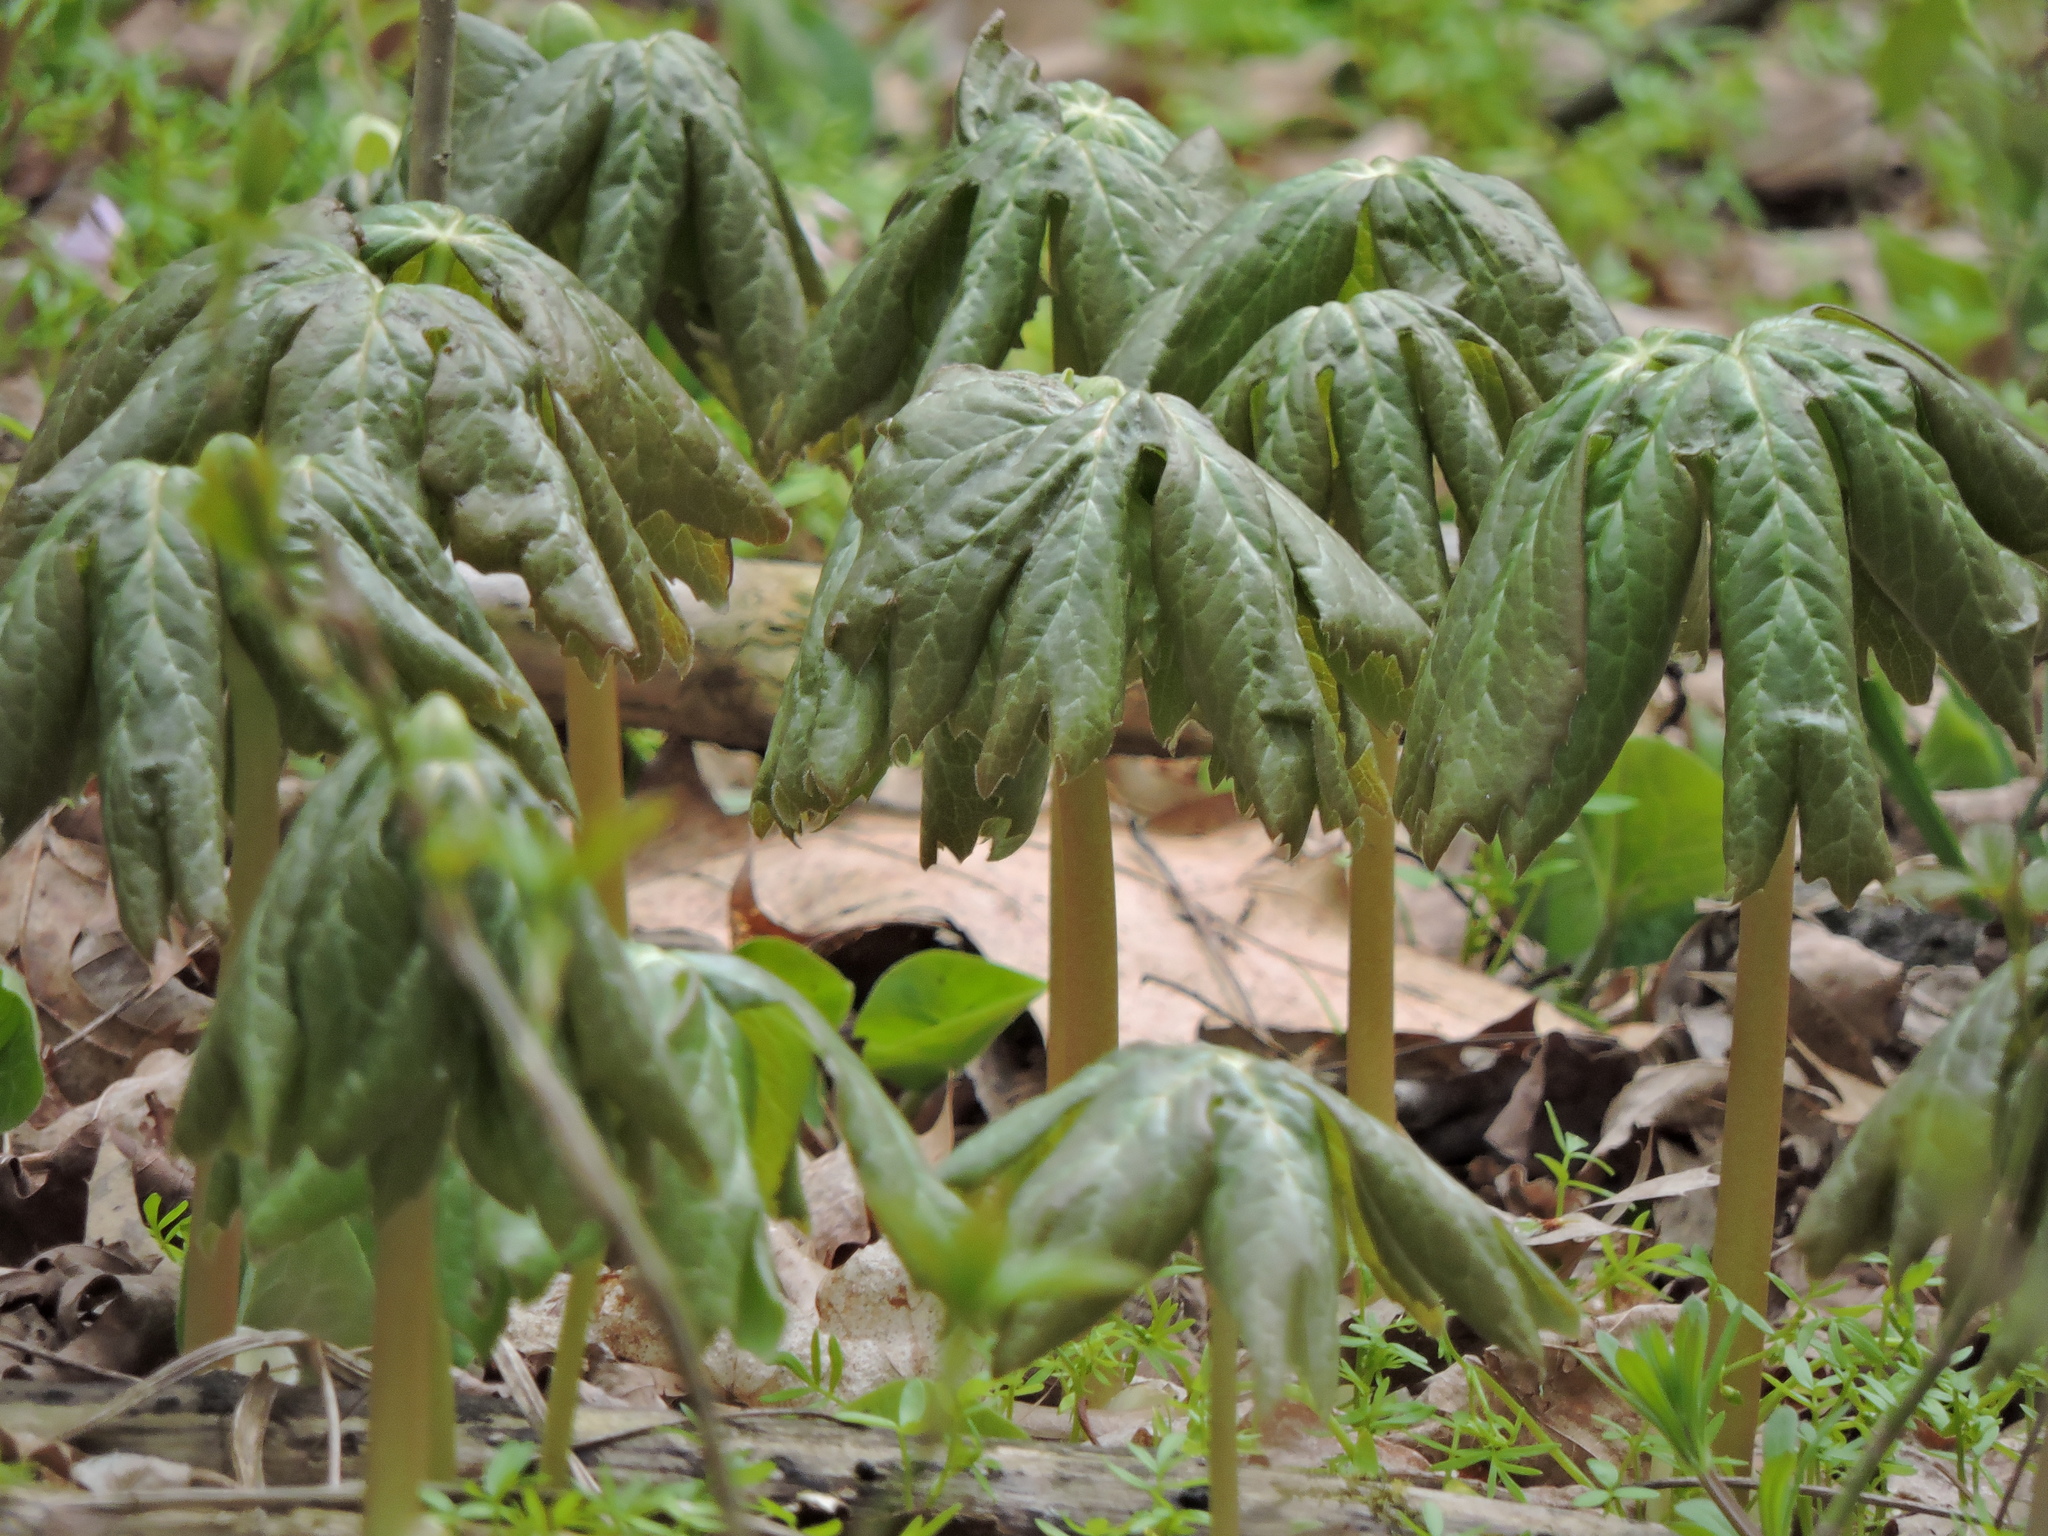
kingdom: Plantae
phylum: Tracheophyta
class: Magnoliopsida
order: Ranunculales
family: Berberidaceae
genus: Podophyllum
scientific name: Podophyllum peltatum
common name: Wild mandrake
